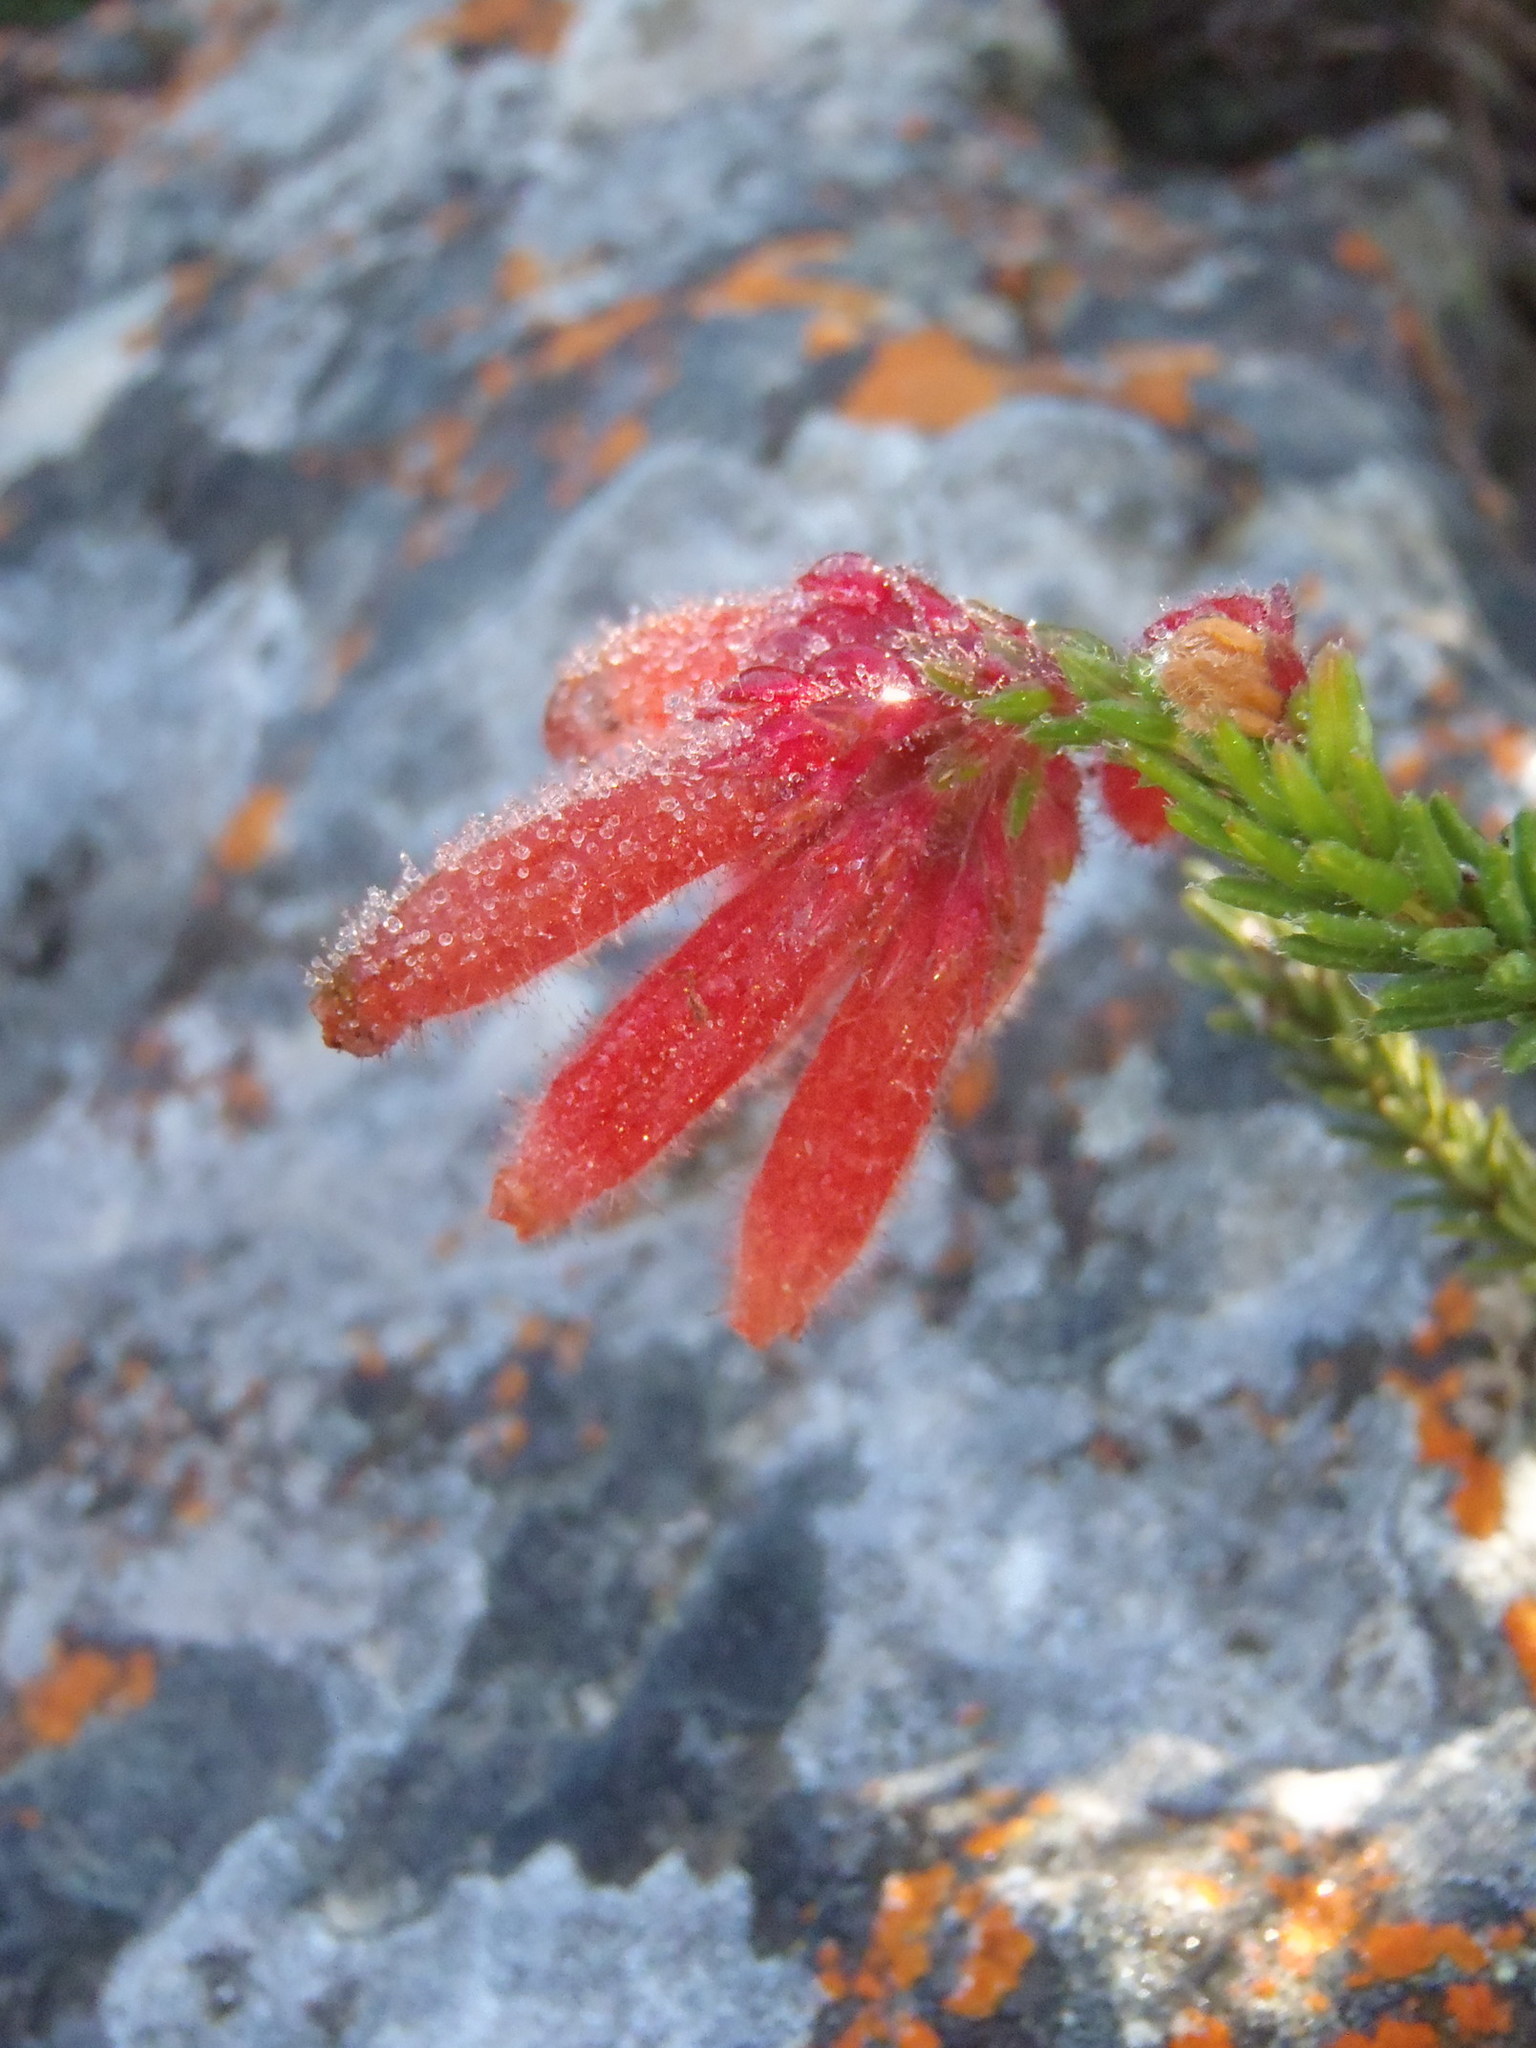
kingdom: Plantae
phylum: Tracheophyta
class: Magnoliopsida
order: Ericales
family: Ericaceae
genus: Erica
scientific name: Erica cerinthoides
